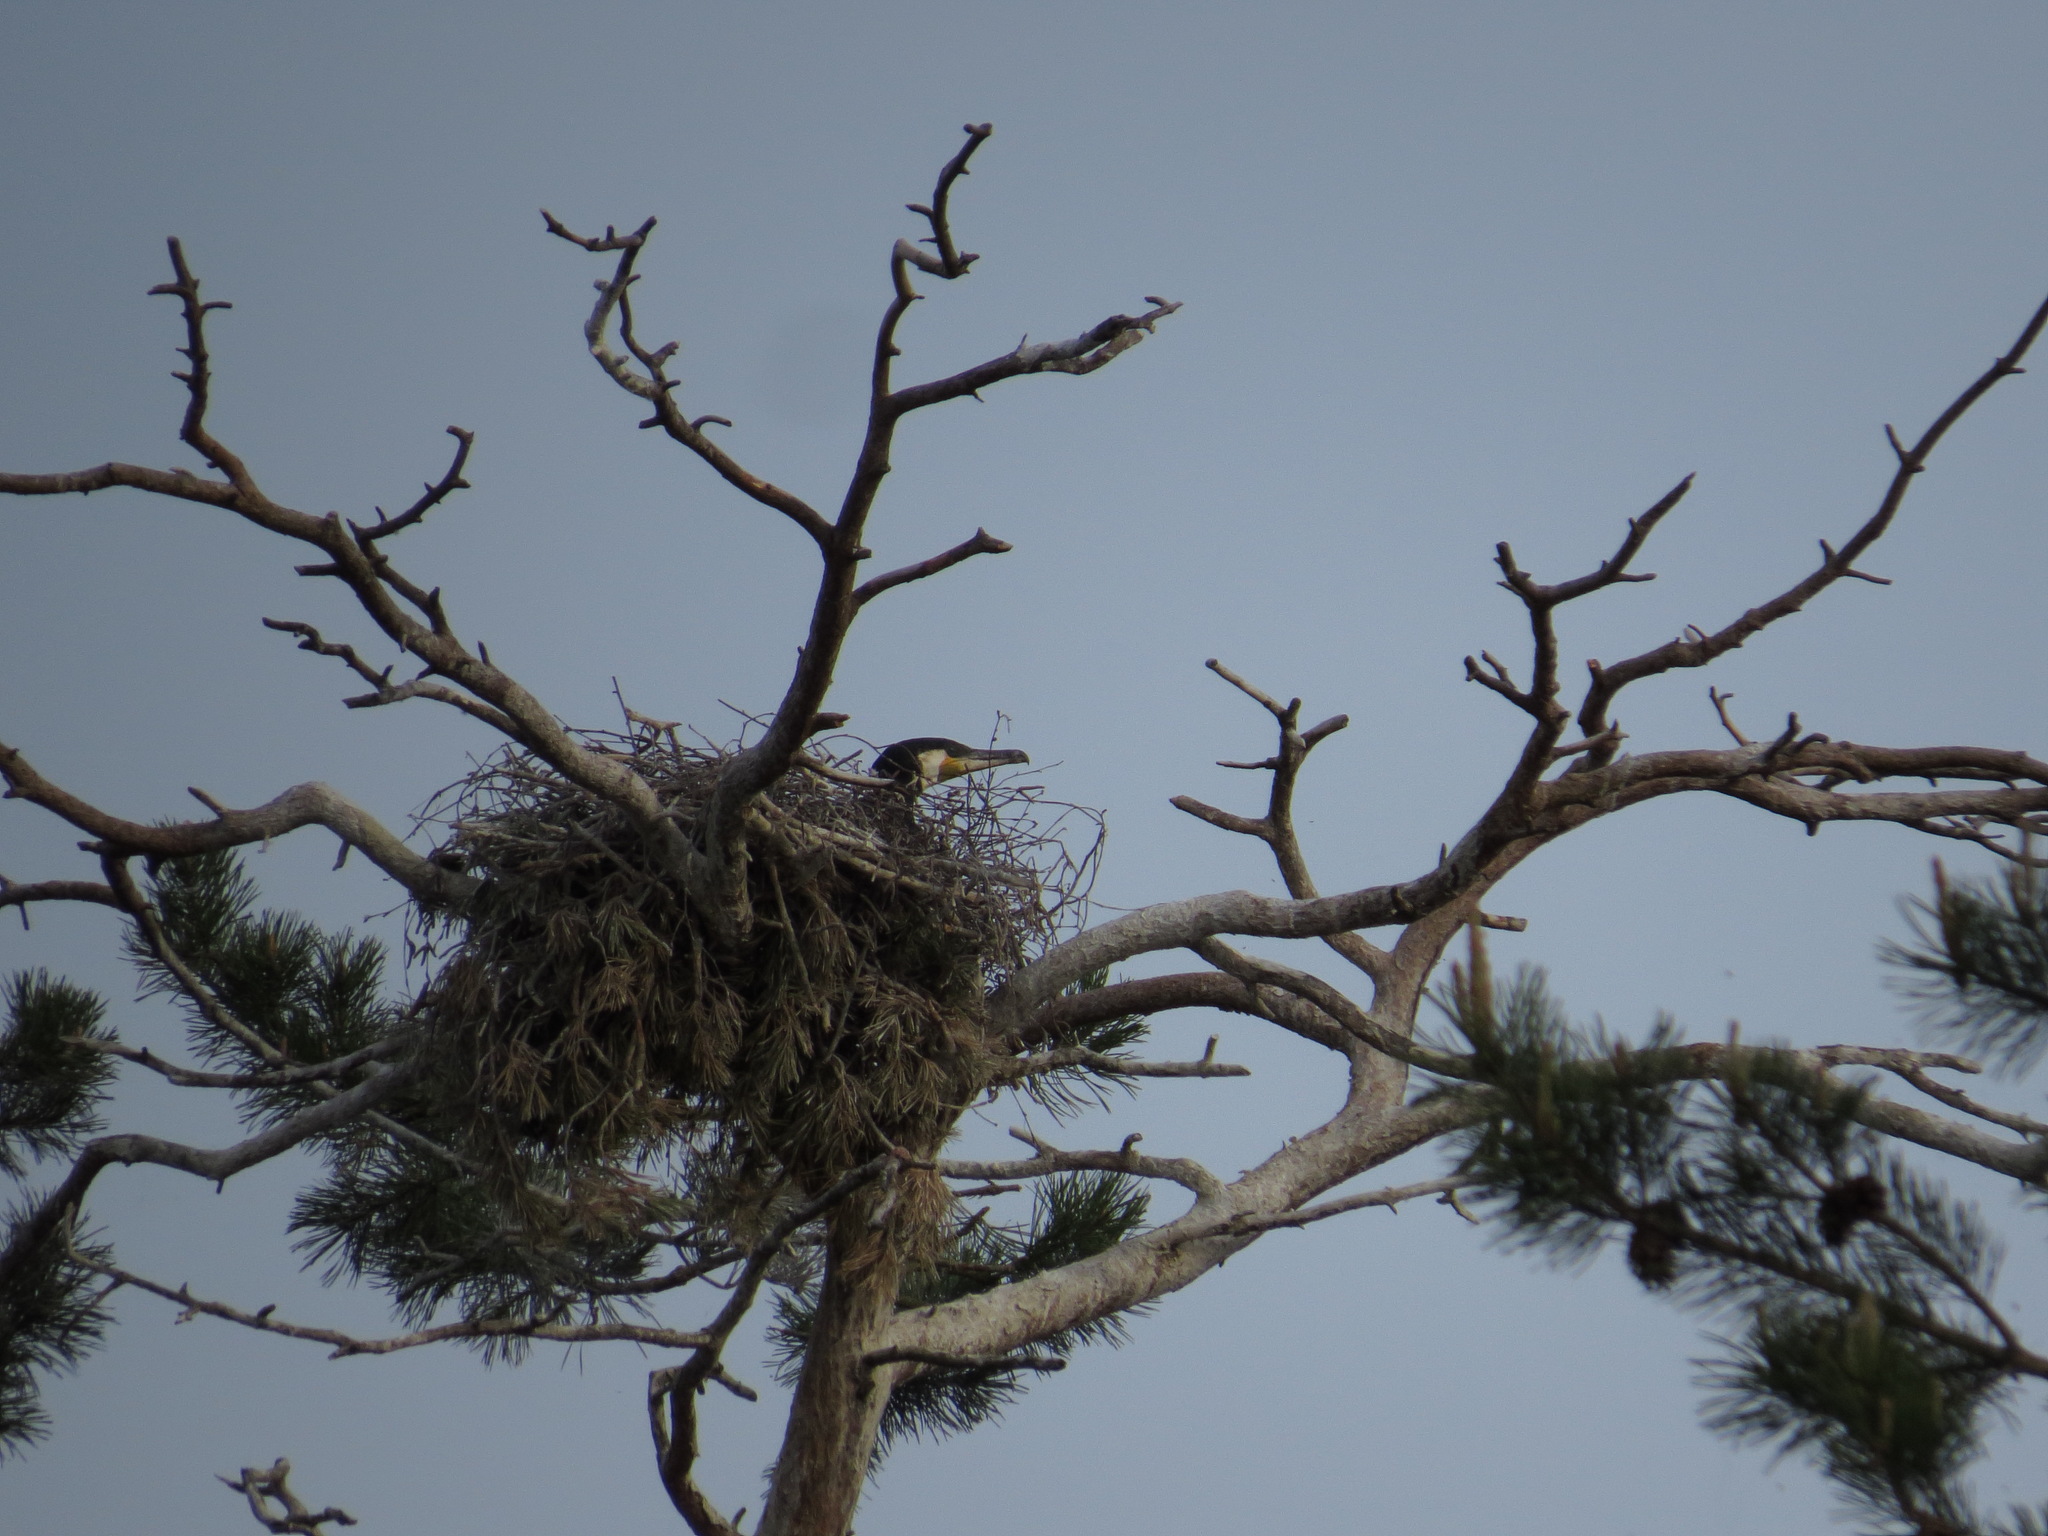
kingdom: Animalia
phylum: Chordata
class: Aves
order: Suliformes
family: Phalacrocoracidae
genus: Phalacrocorax
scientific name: Phalacrocorax carbo
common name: Great cormorant
